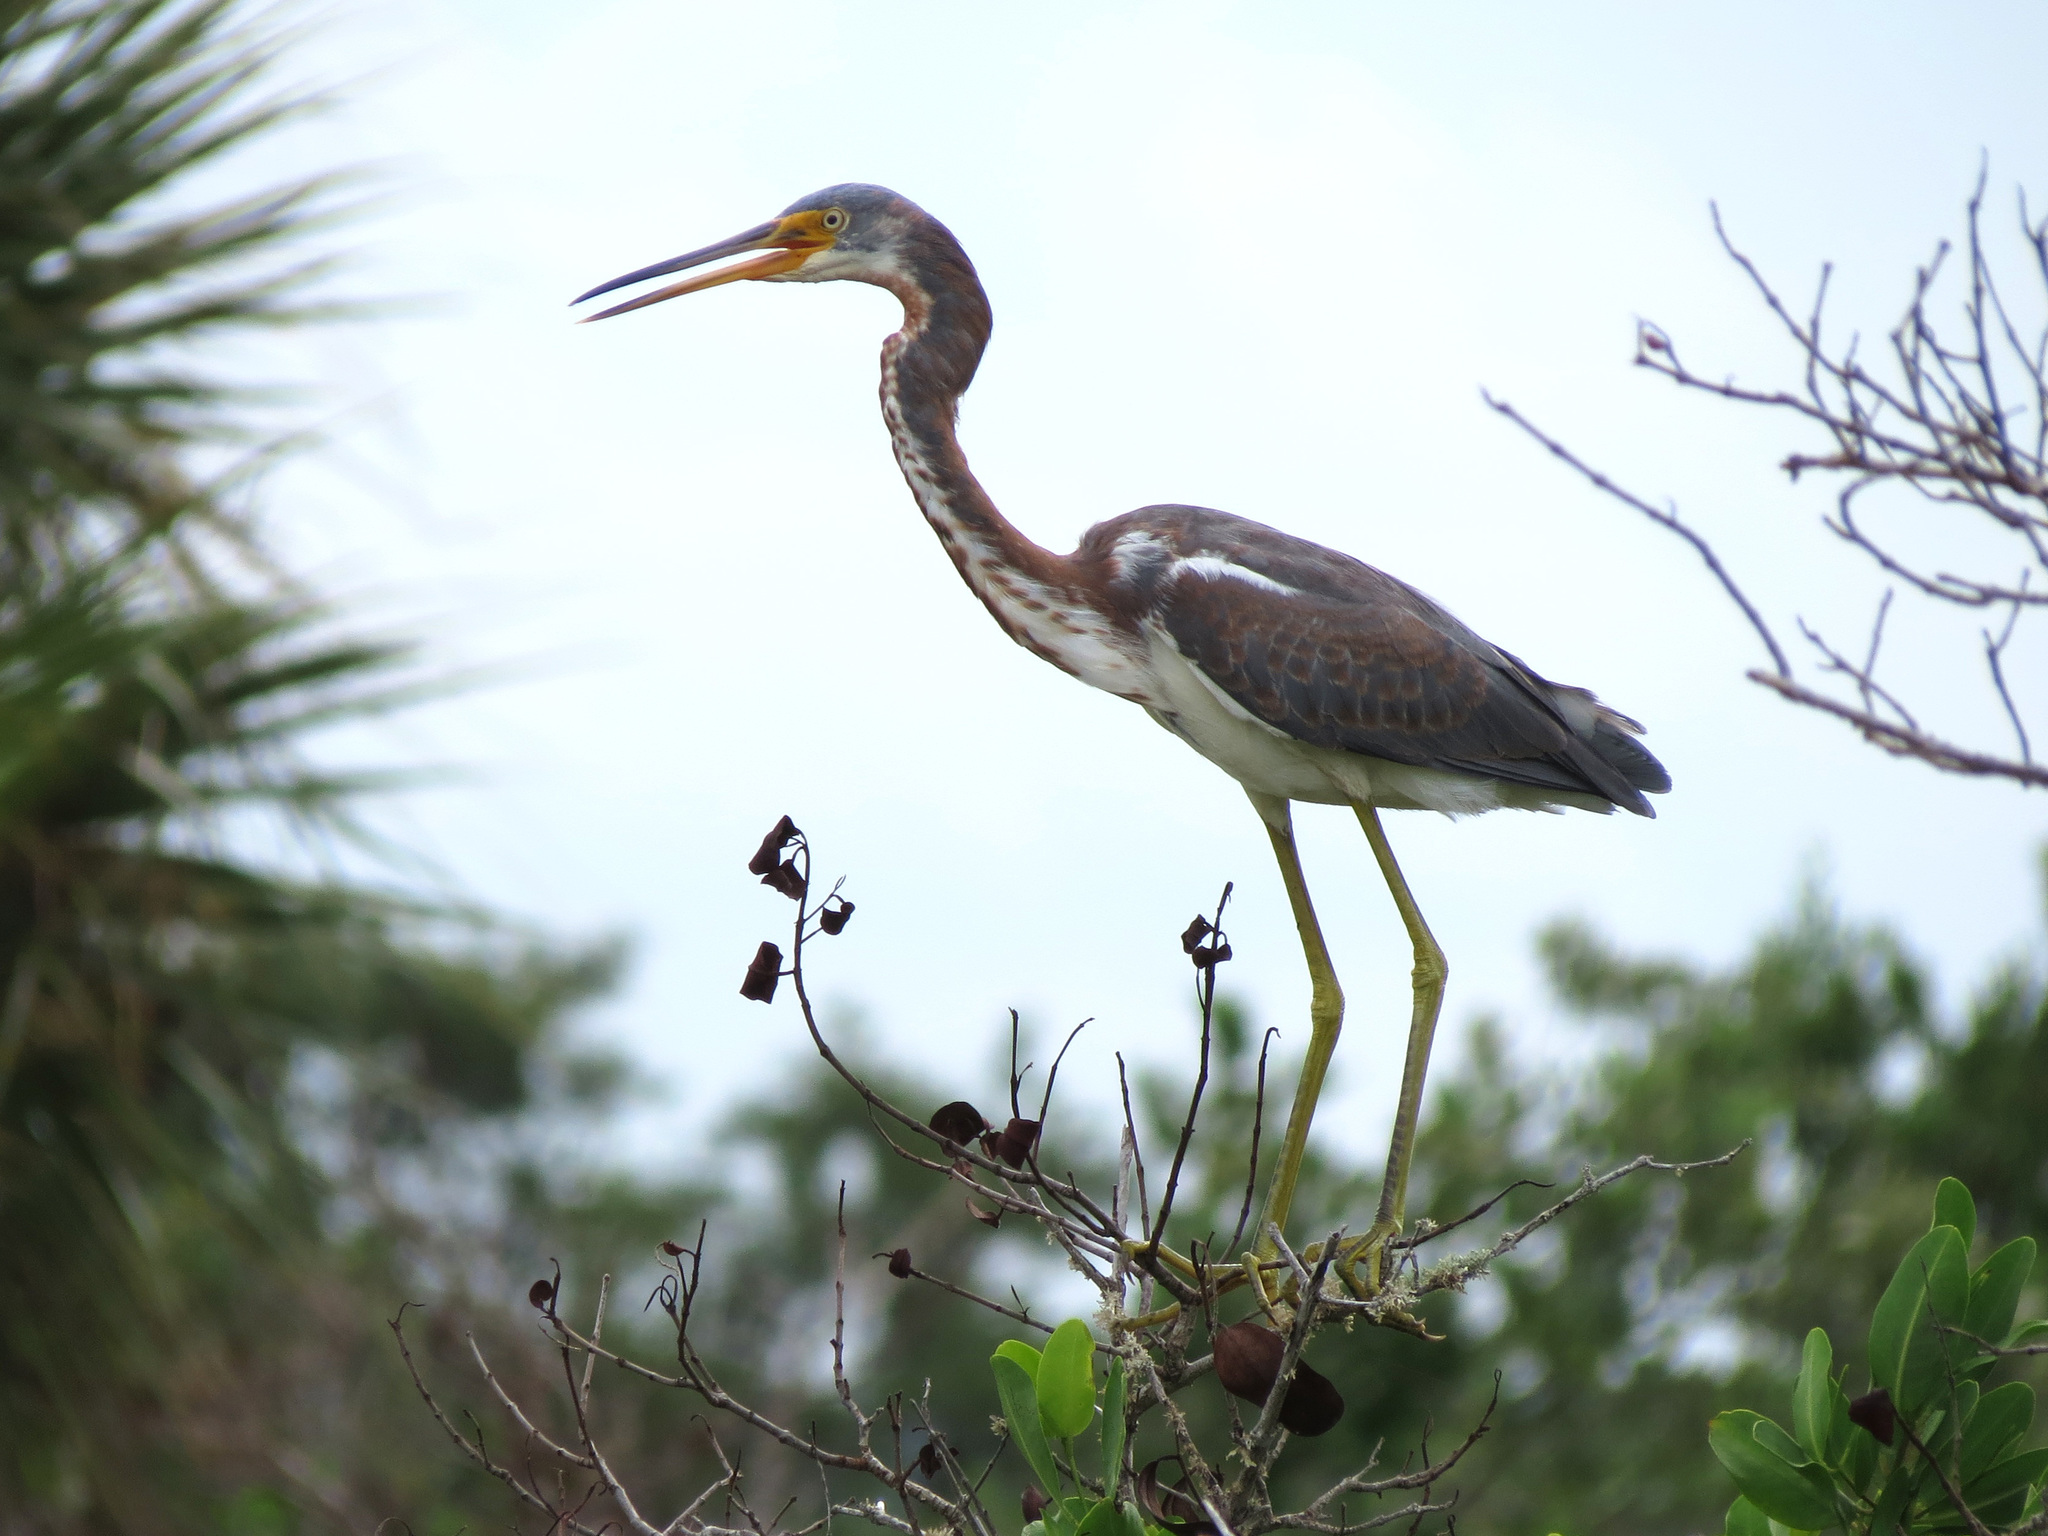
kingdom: Animalia
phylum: Chordata
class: Aves
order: Pelecaniformes
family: Ardeidae
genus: Egretta
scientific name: Egretta tricolor
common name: Tricolored heron
